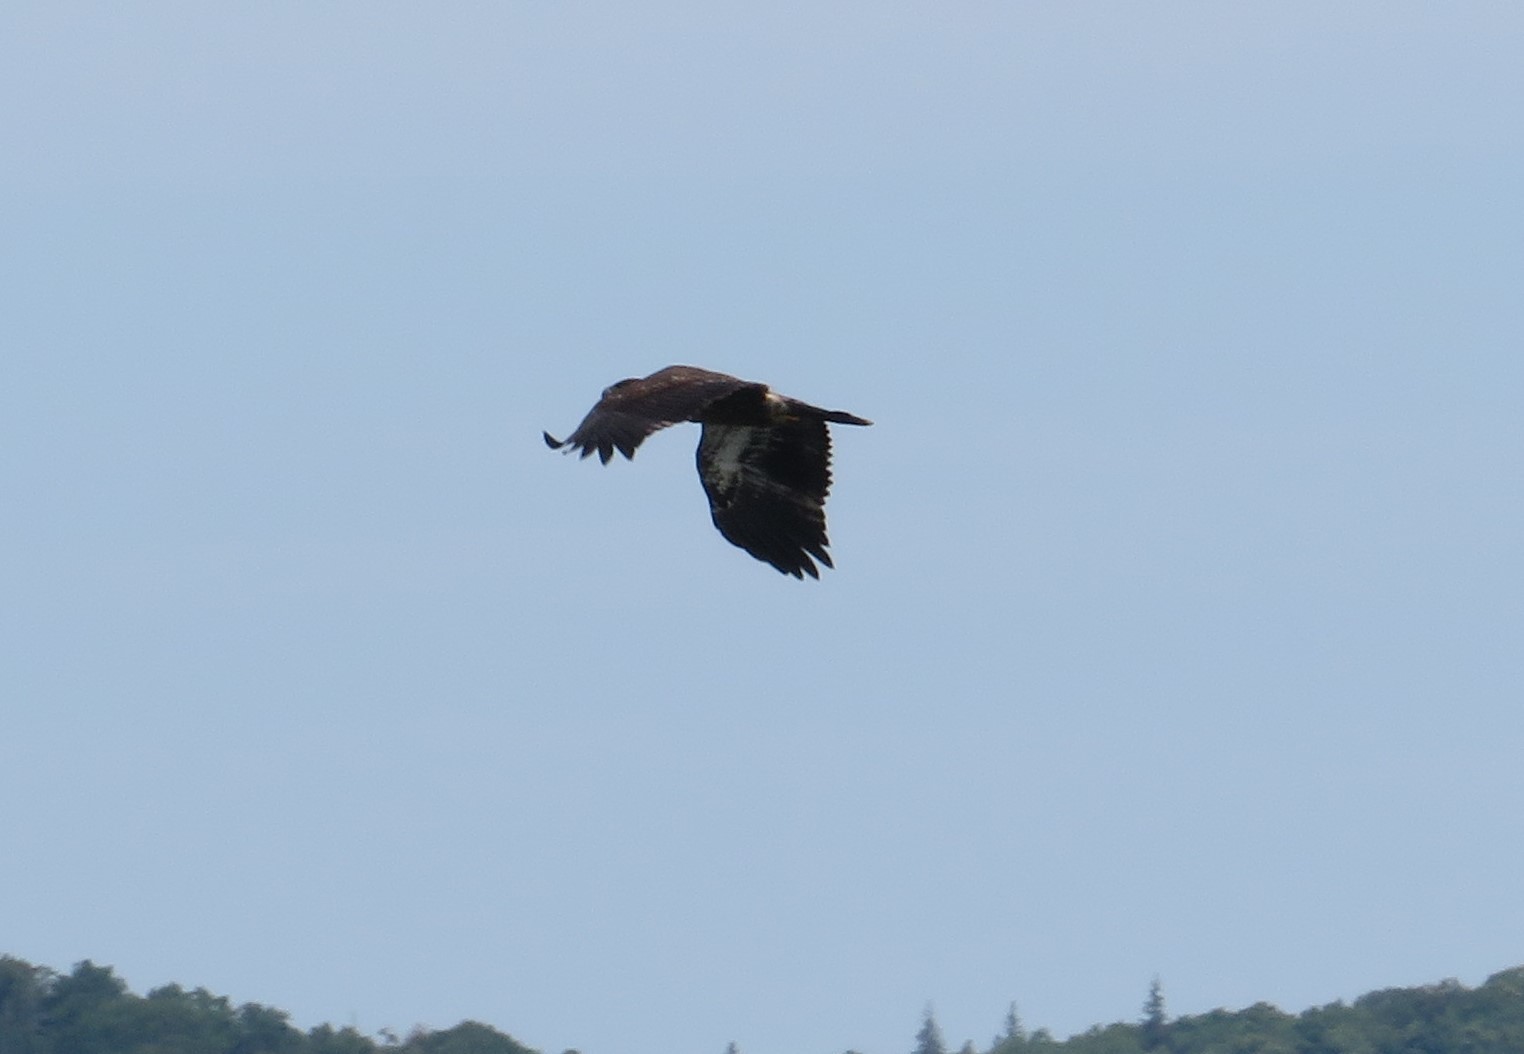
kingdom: Animalia
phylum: Chordata
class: Aves
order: Accipitriformes
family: Accipitridae
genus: Haliaeetus
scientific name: Haliaeetus leucocephalus
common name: Bald eagle
